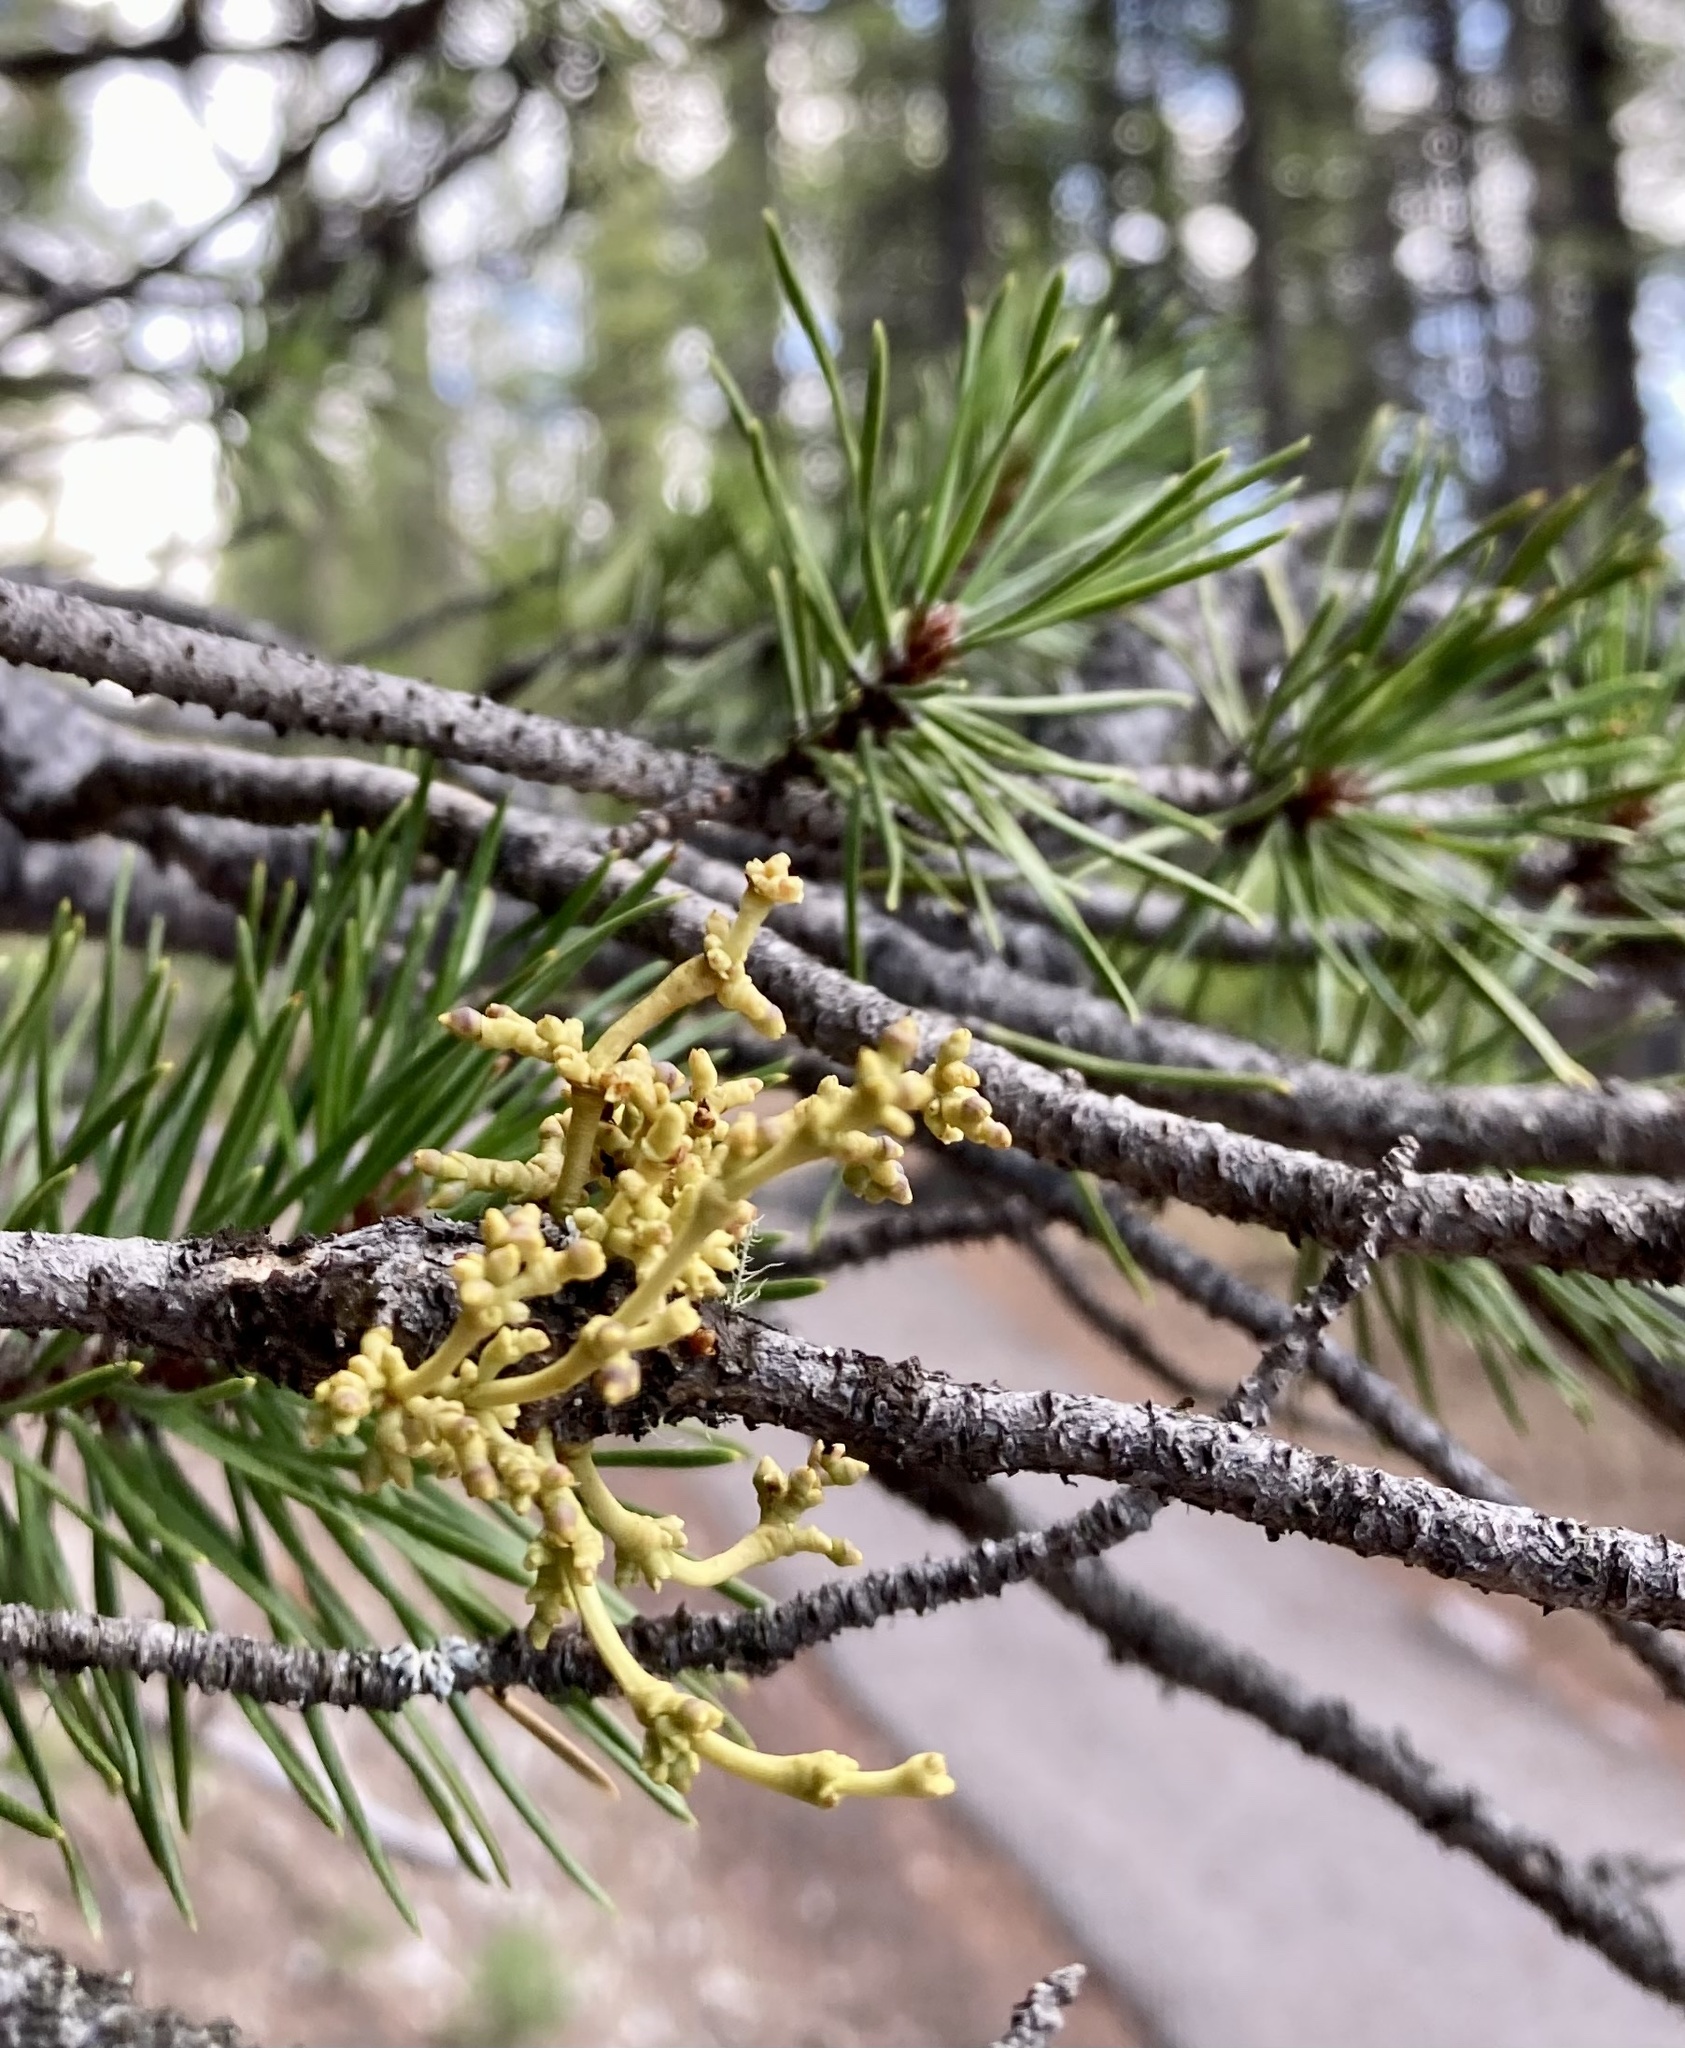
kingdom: Plantae
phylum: Tracheophyta
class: Magnoliopsida
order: Santalales
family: Viscaceae
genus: Arceuthobium
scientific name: Arceuthobium americanum
